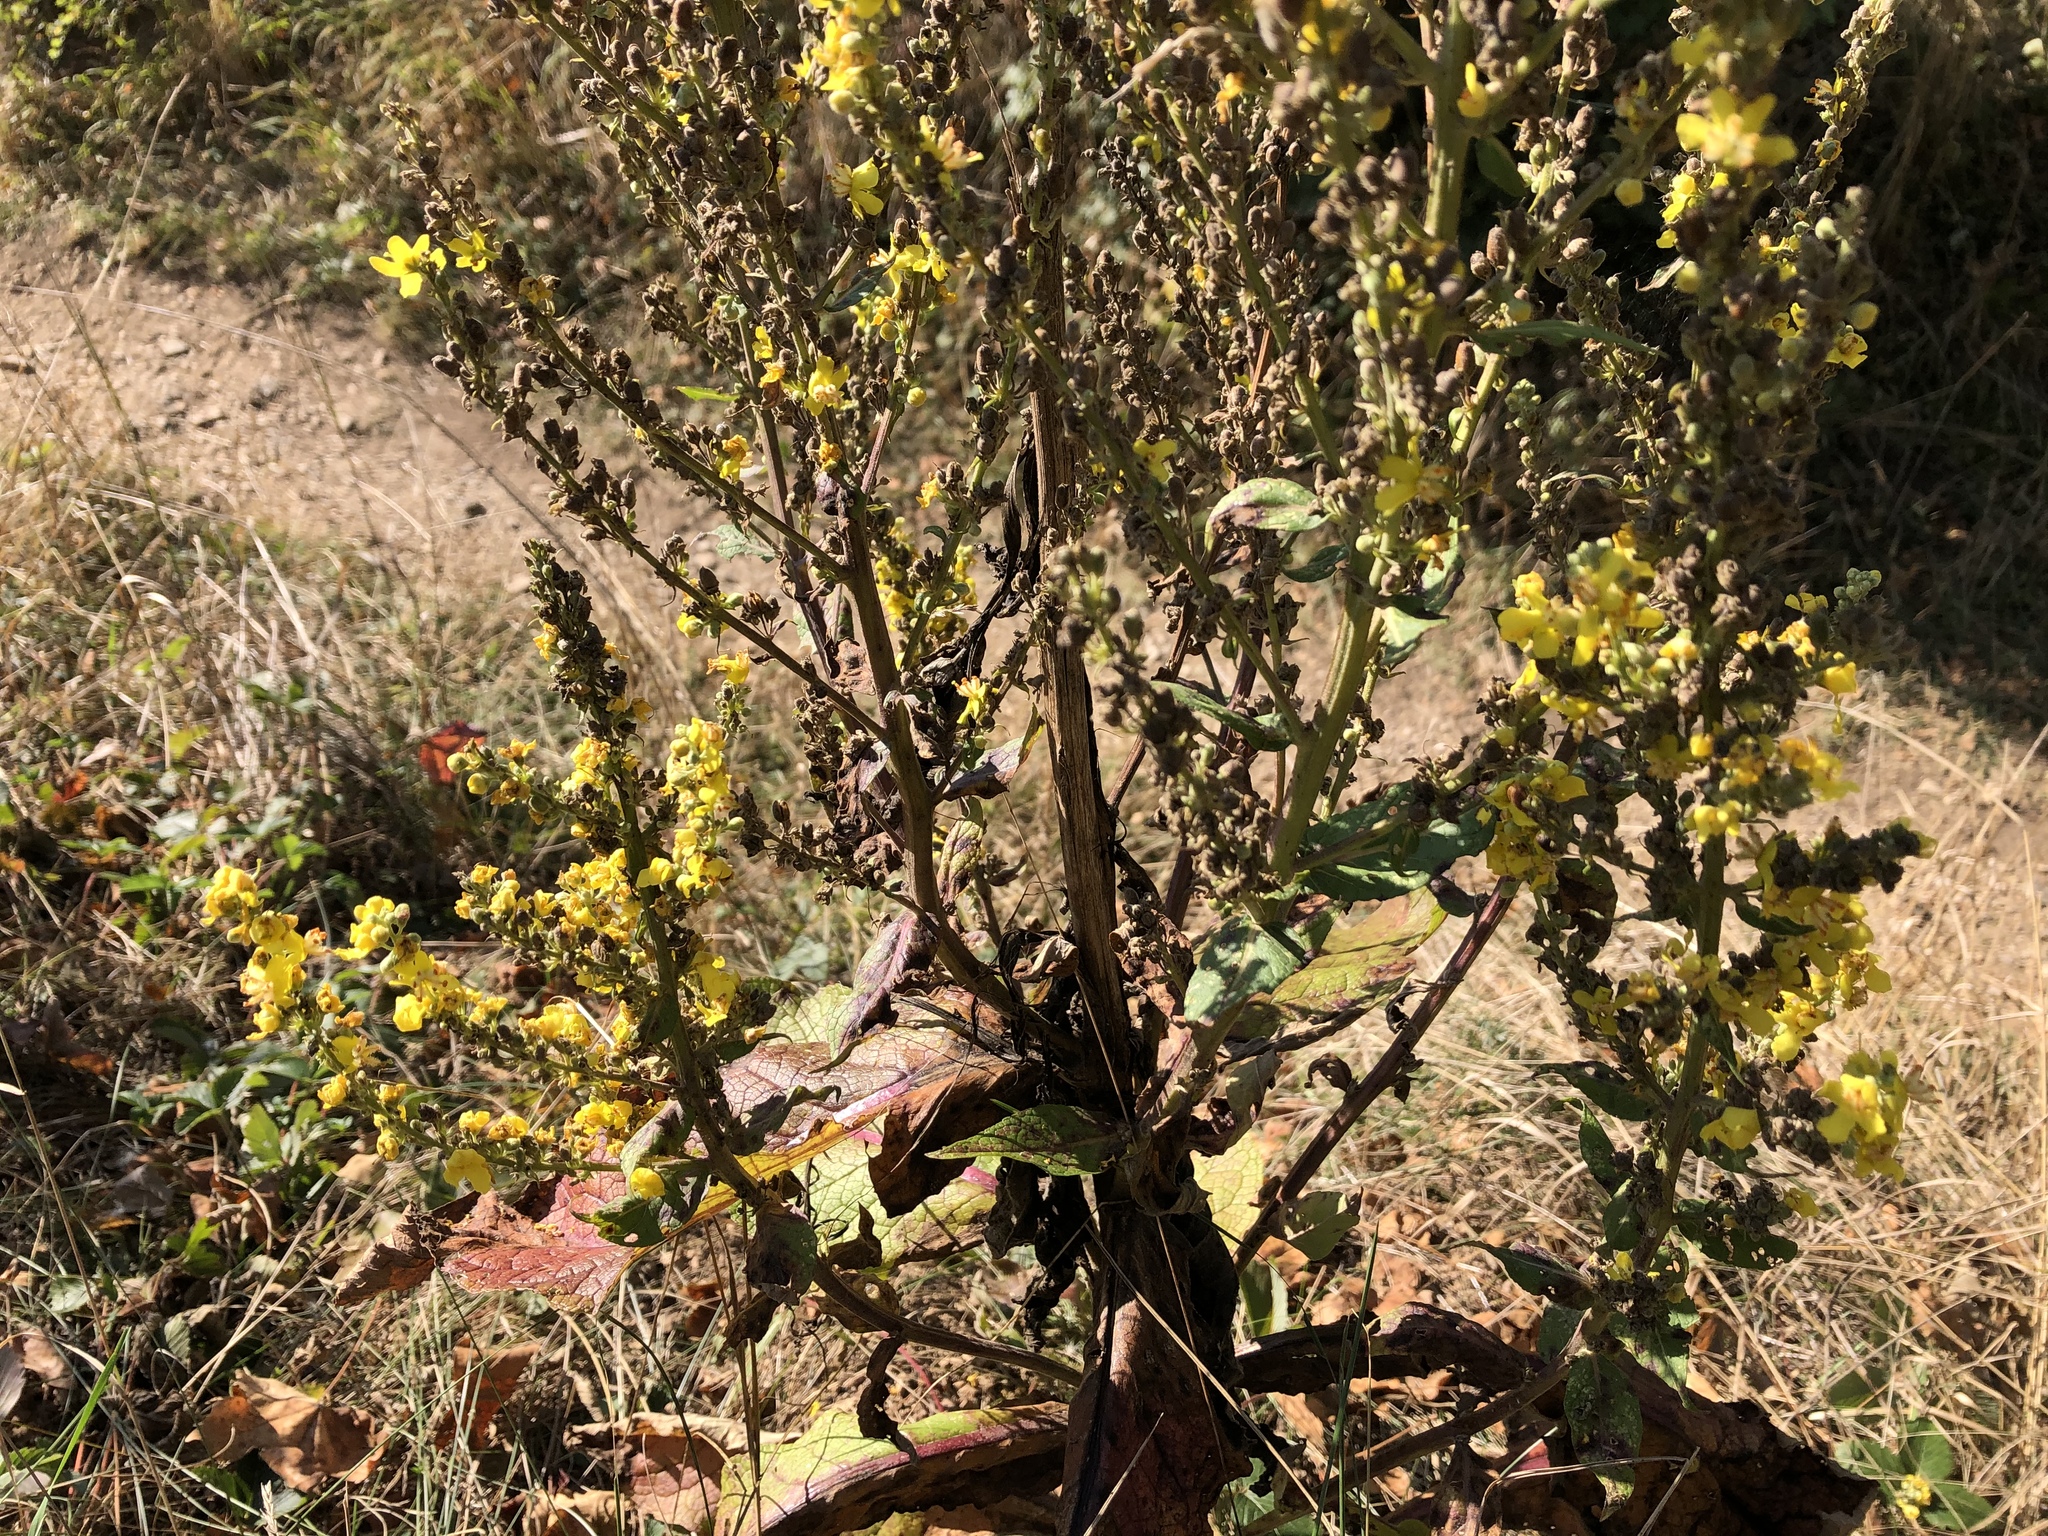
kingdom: Plantae
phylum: Tracheophyta
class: Magnoliopsida
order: Lamiales
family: Scrophulariaceae
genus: Verbascum
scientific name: Verbascum lychnitis
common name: White mullein
